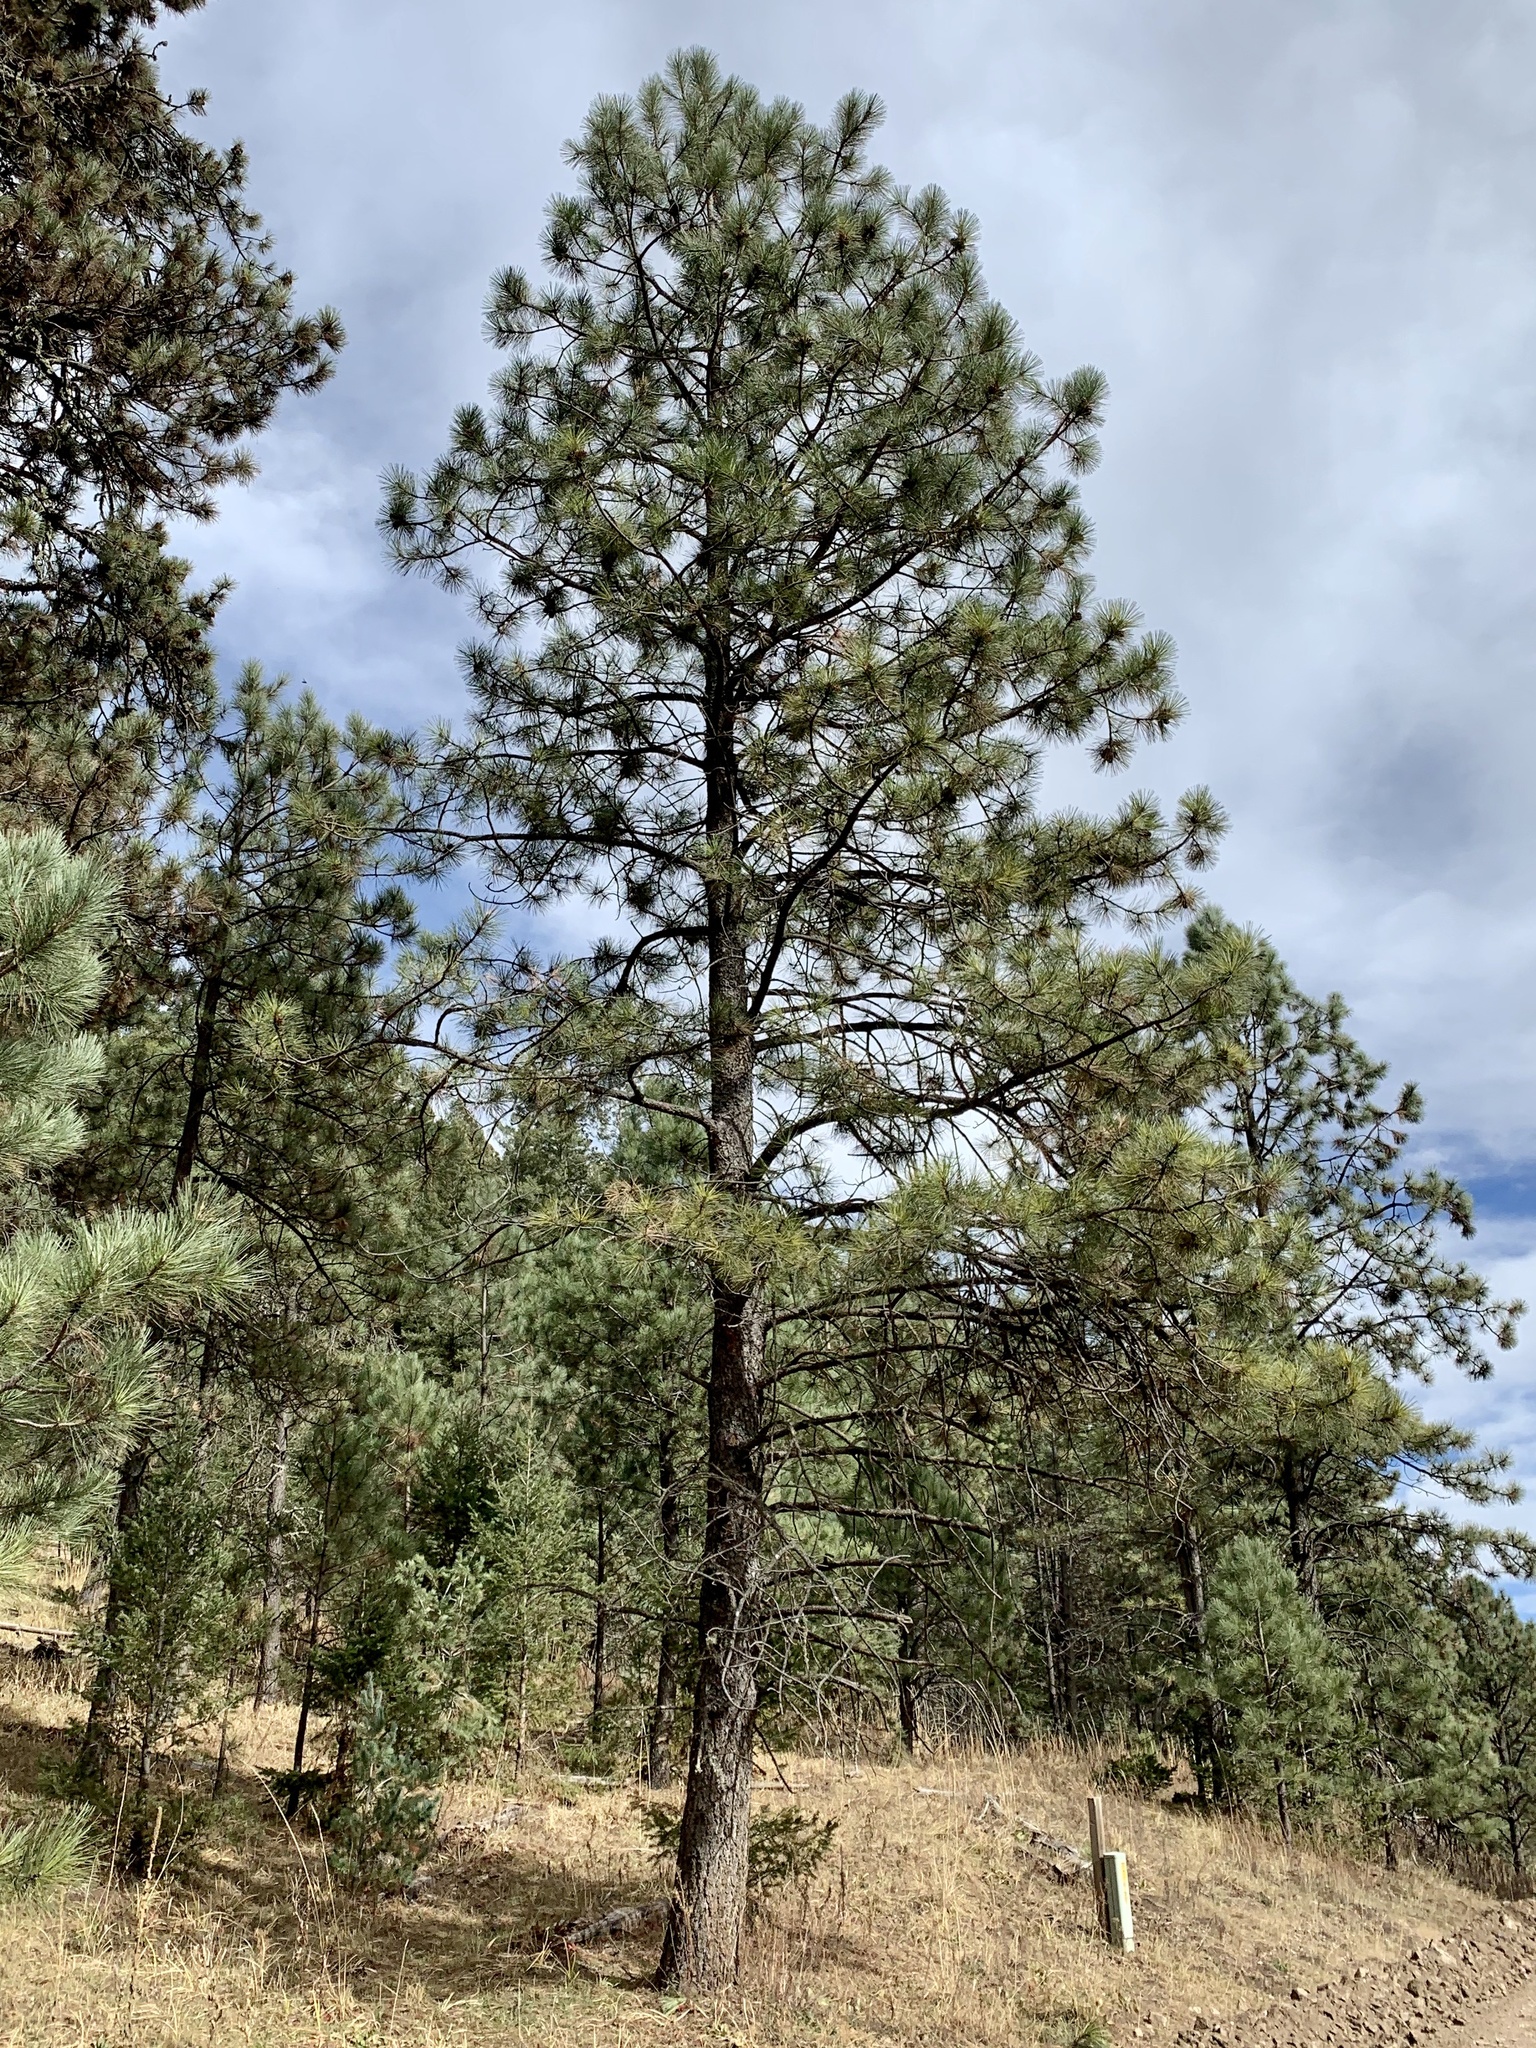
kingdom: Plantae
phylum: Tracheophyta
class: Pinopsida
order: Pinales
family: Pinaceae
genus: Pinus
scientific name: Pinus ponderosa
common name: Western yellow-pine
